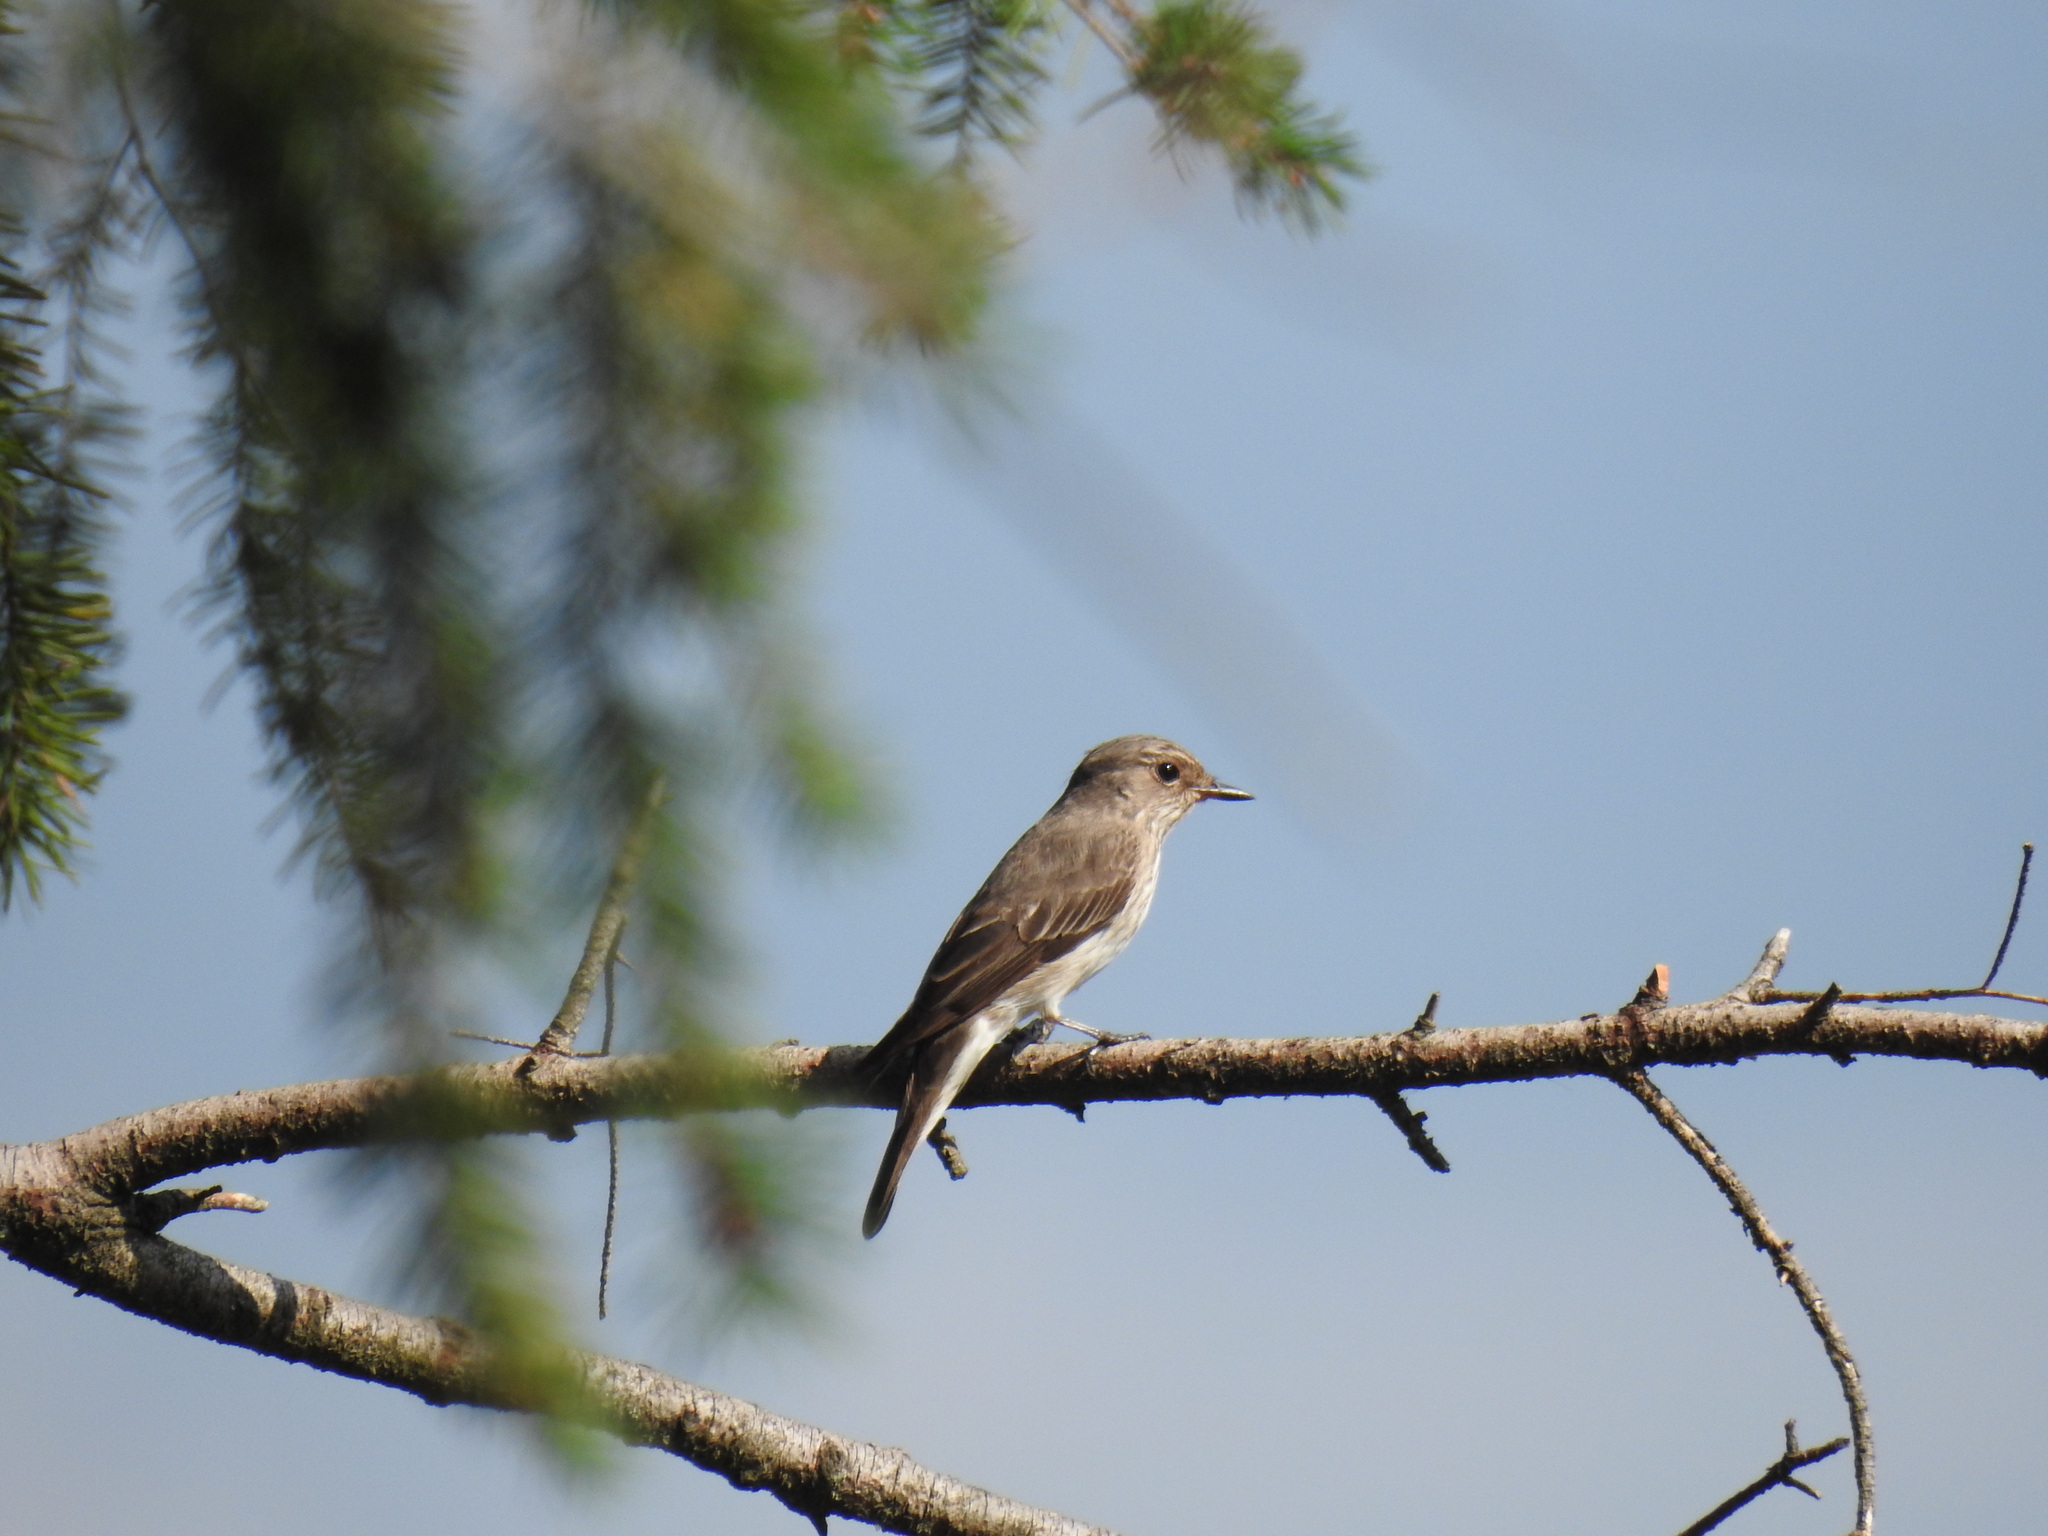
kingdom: Animalia
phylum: Chordata
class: Aves
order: Passeriformes
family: Muscicapidae
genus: Muscicapa
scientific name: Muscicapa striata
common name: Spotted flycatcher
